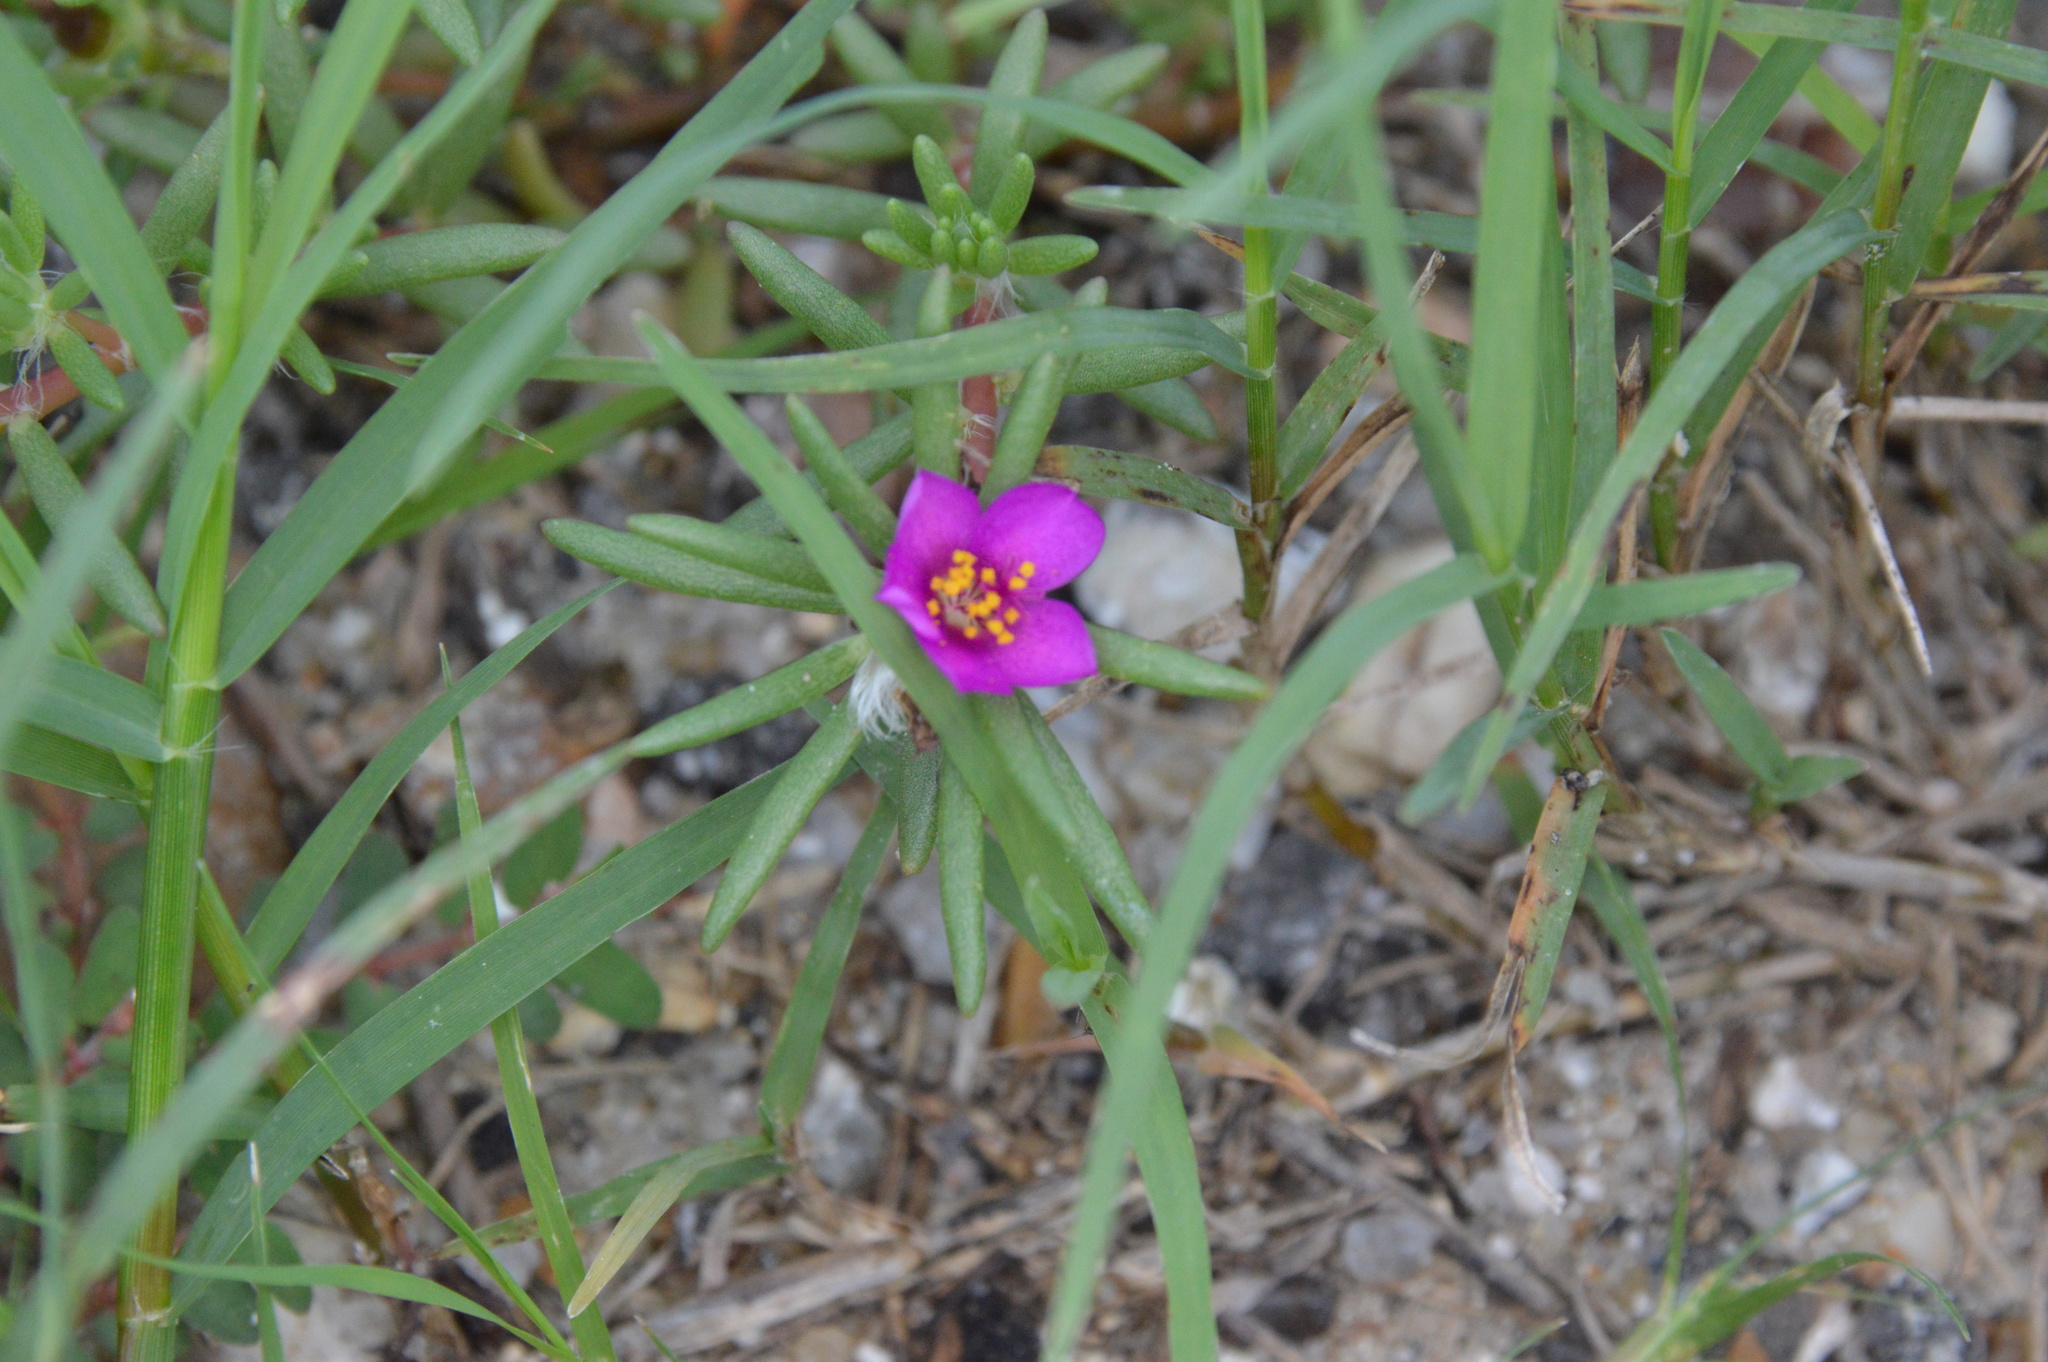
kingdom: Plantae
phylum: Tracheophyta
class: Magnoliopsida
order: Caryophyllales
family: Portulacaceae
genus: Portulaca
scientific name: Portulaca pilosa
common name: Kiss me quick
